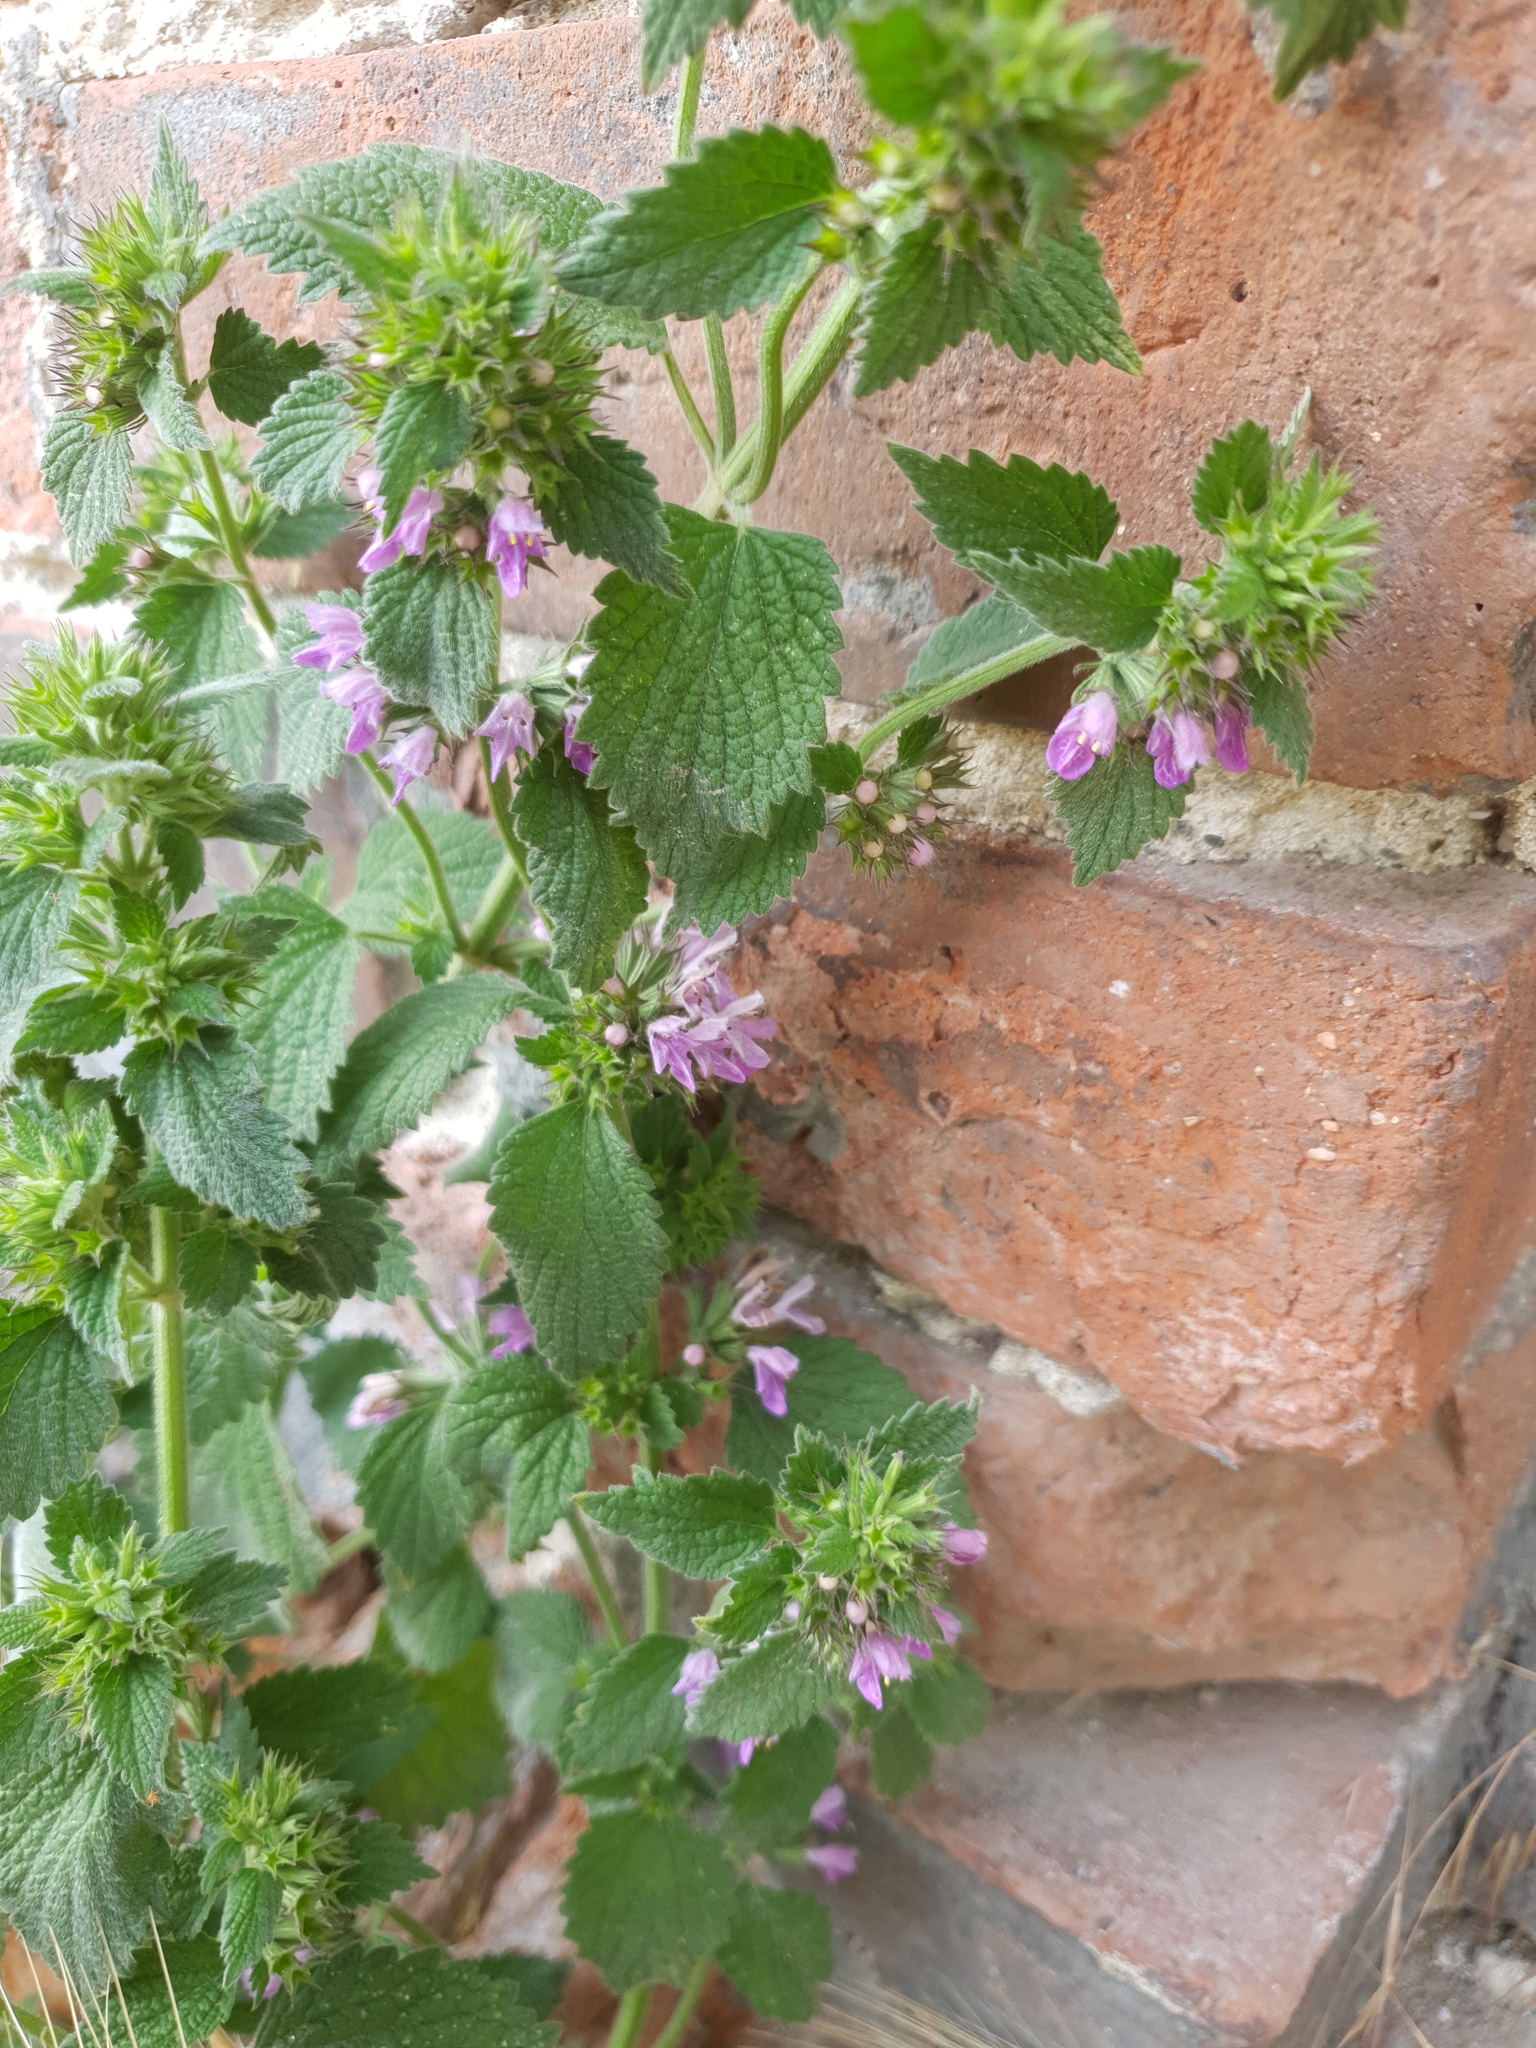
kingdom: Plantae
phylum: Tracheophyta
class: Magnoliopsida
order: Lamiales
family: Lamiaceae
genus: Ballota
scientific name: Ballota nigra
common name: Black horehound
